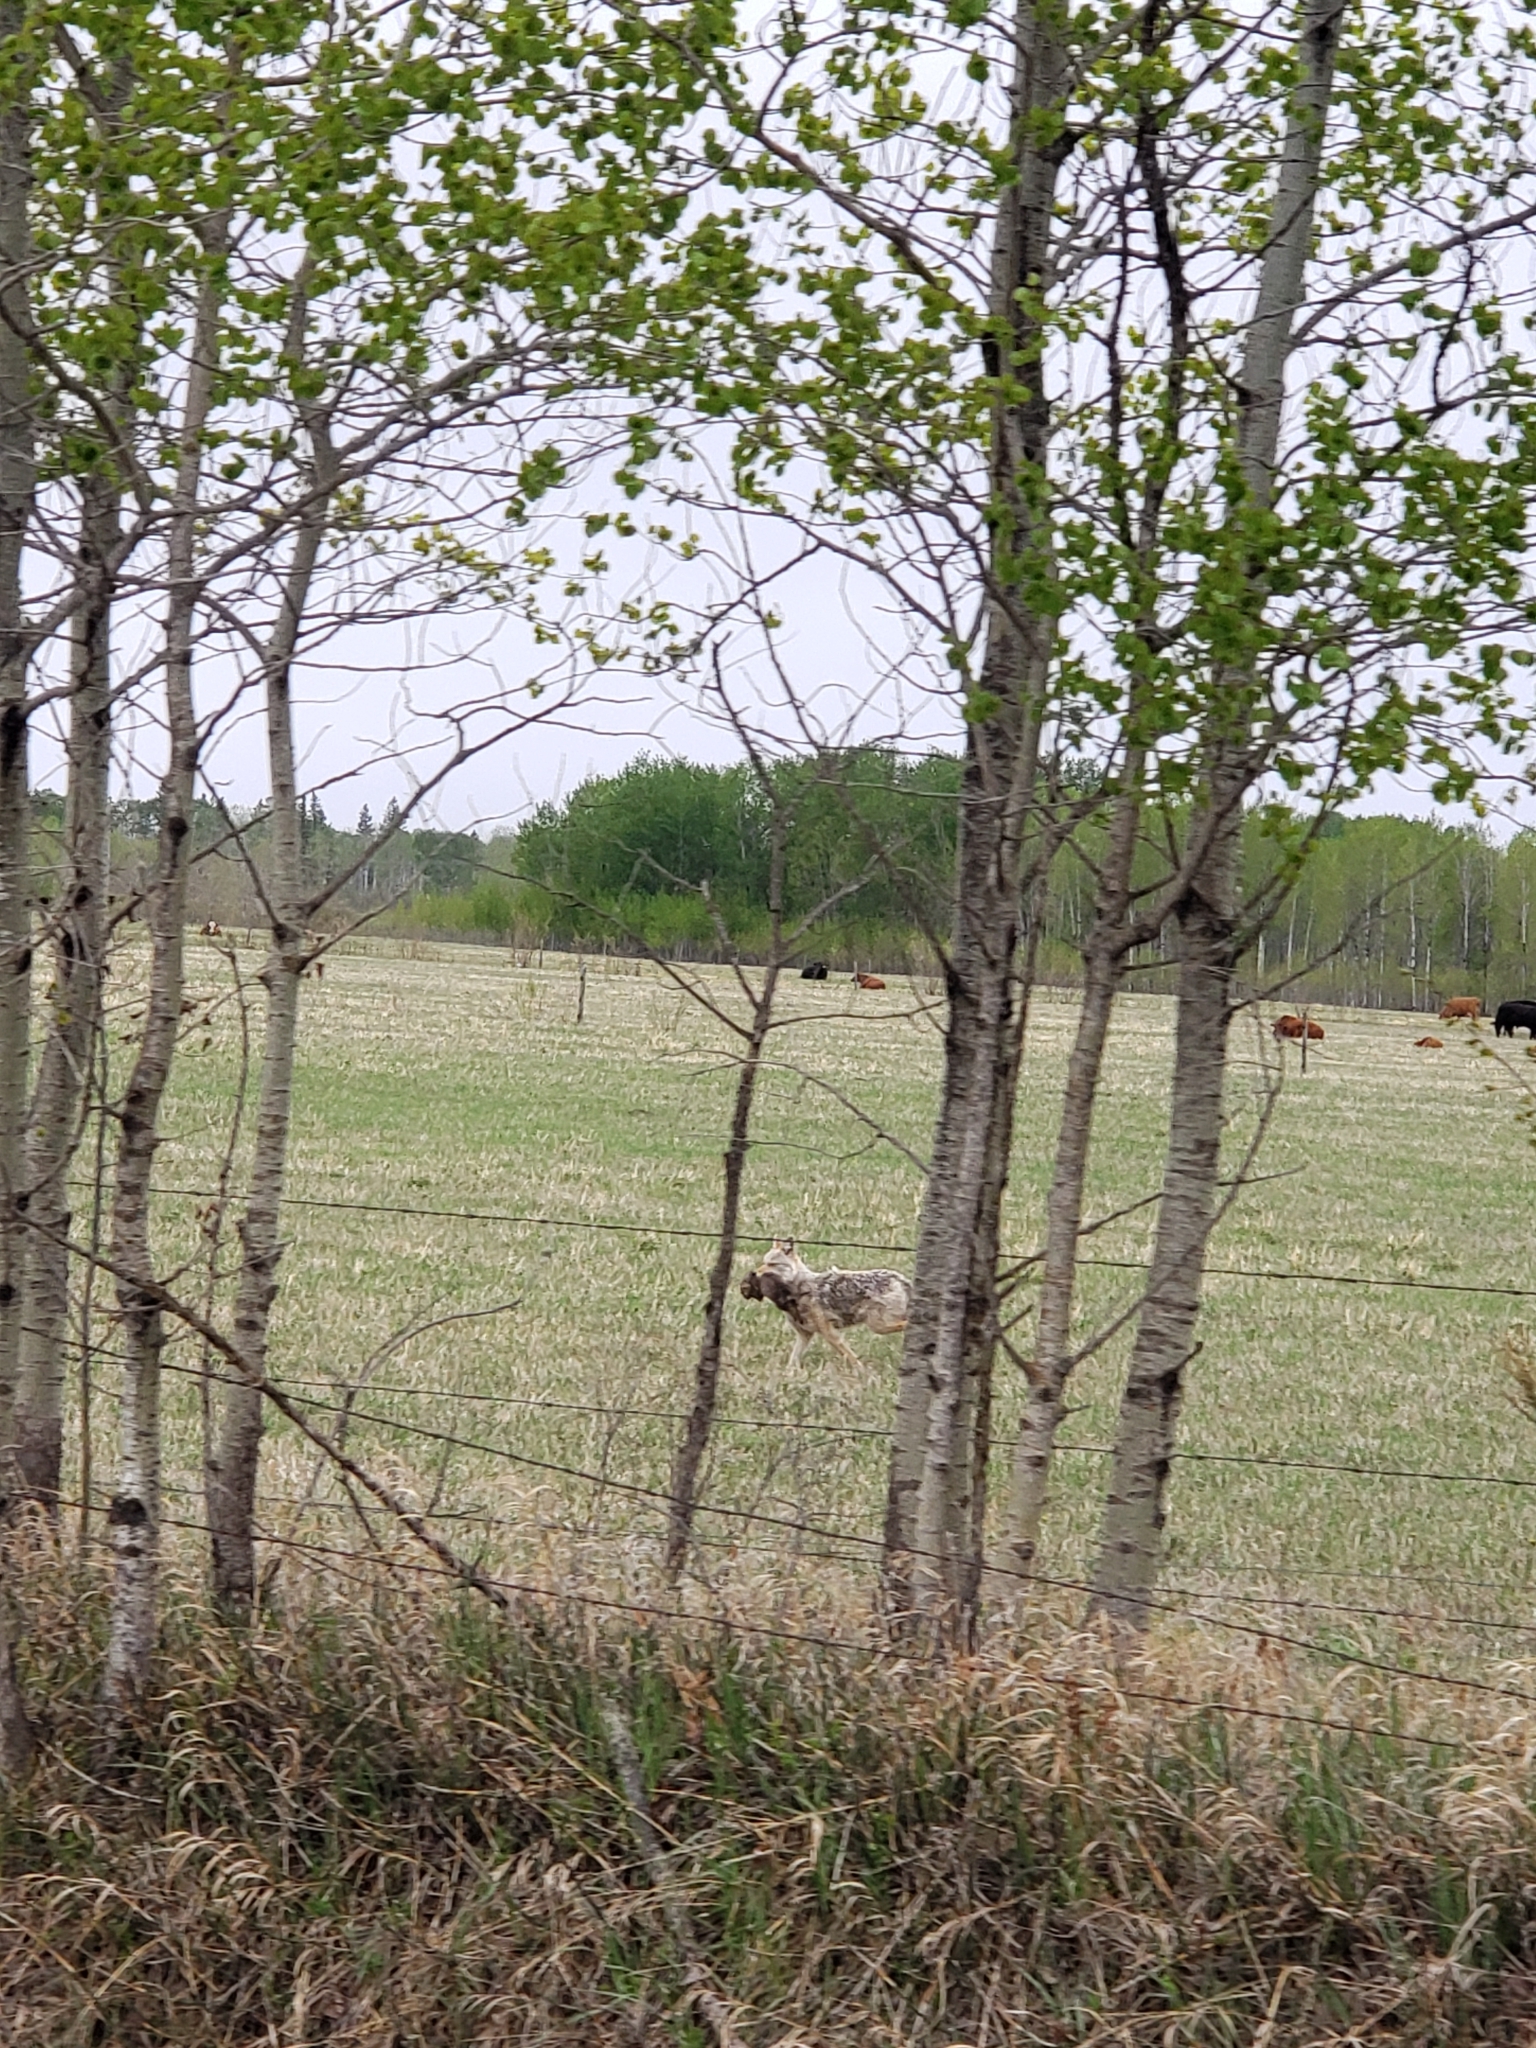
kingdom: Animalia
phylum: Chordata
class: Mammalia
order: Carnivora
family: Canidae
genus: Canis
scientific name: Canis latrans
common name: Coyote
